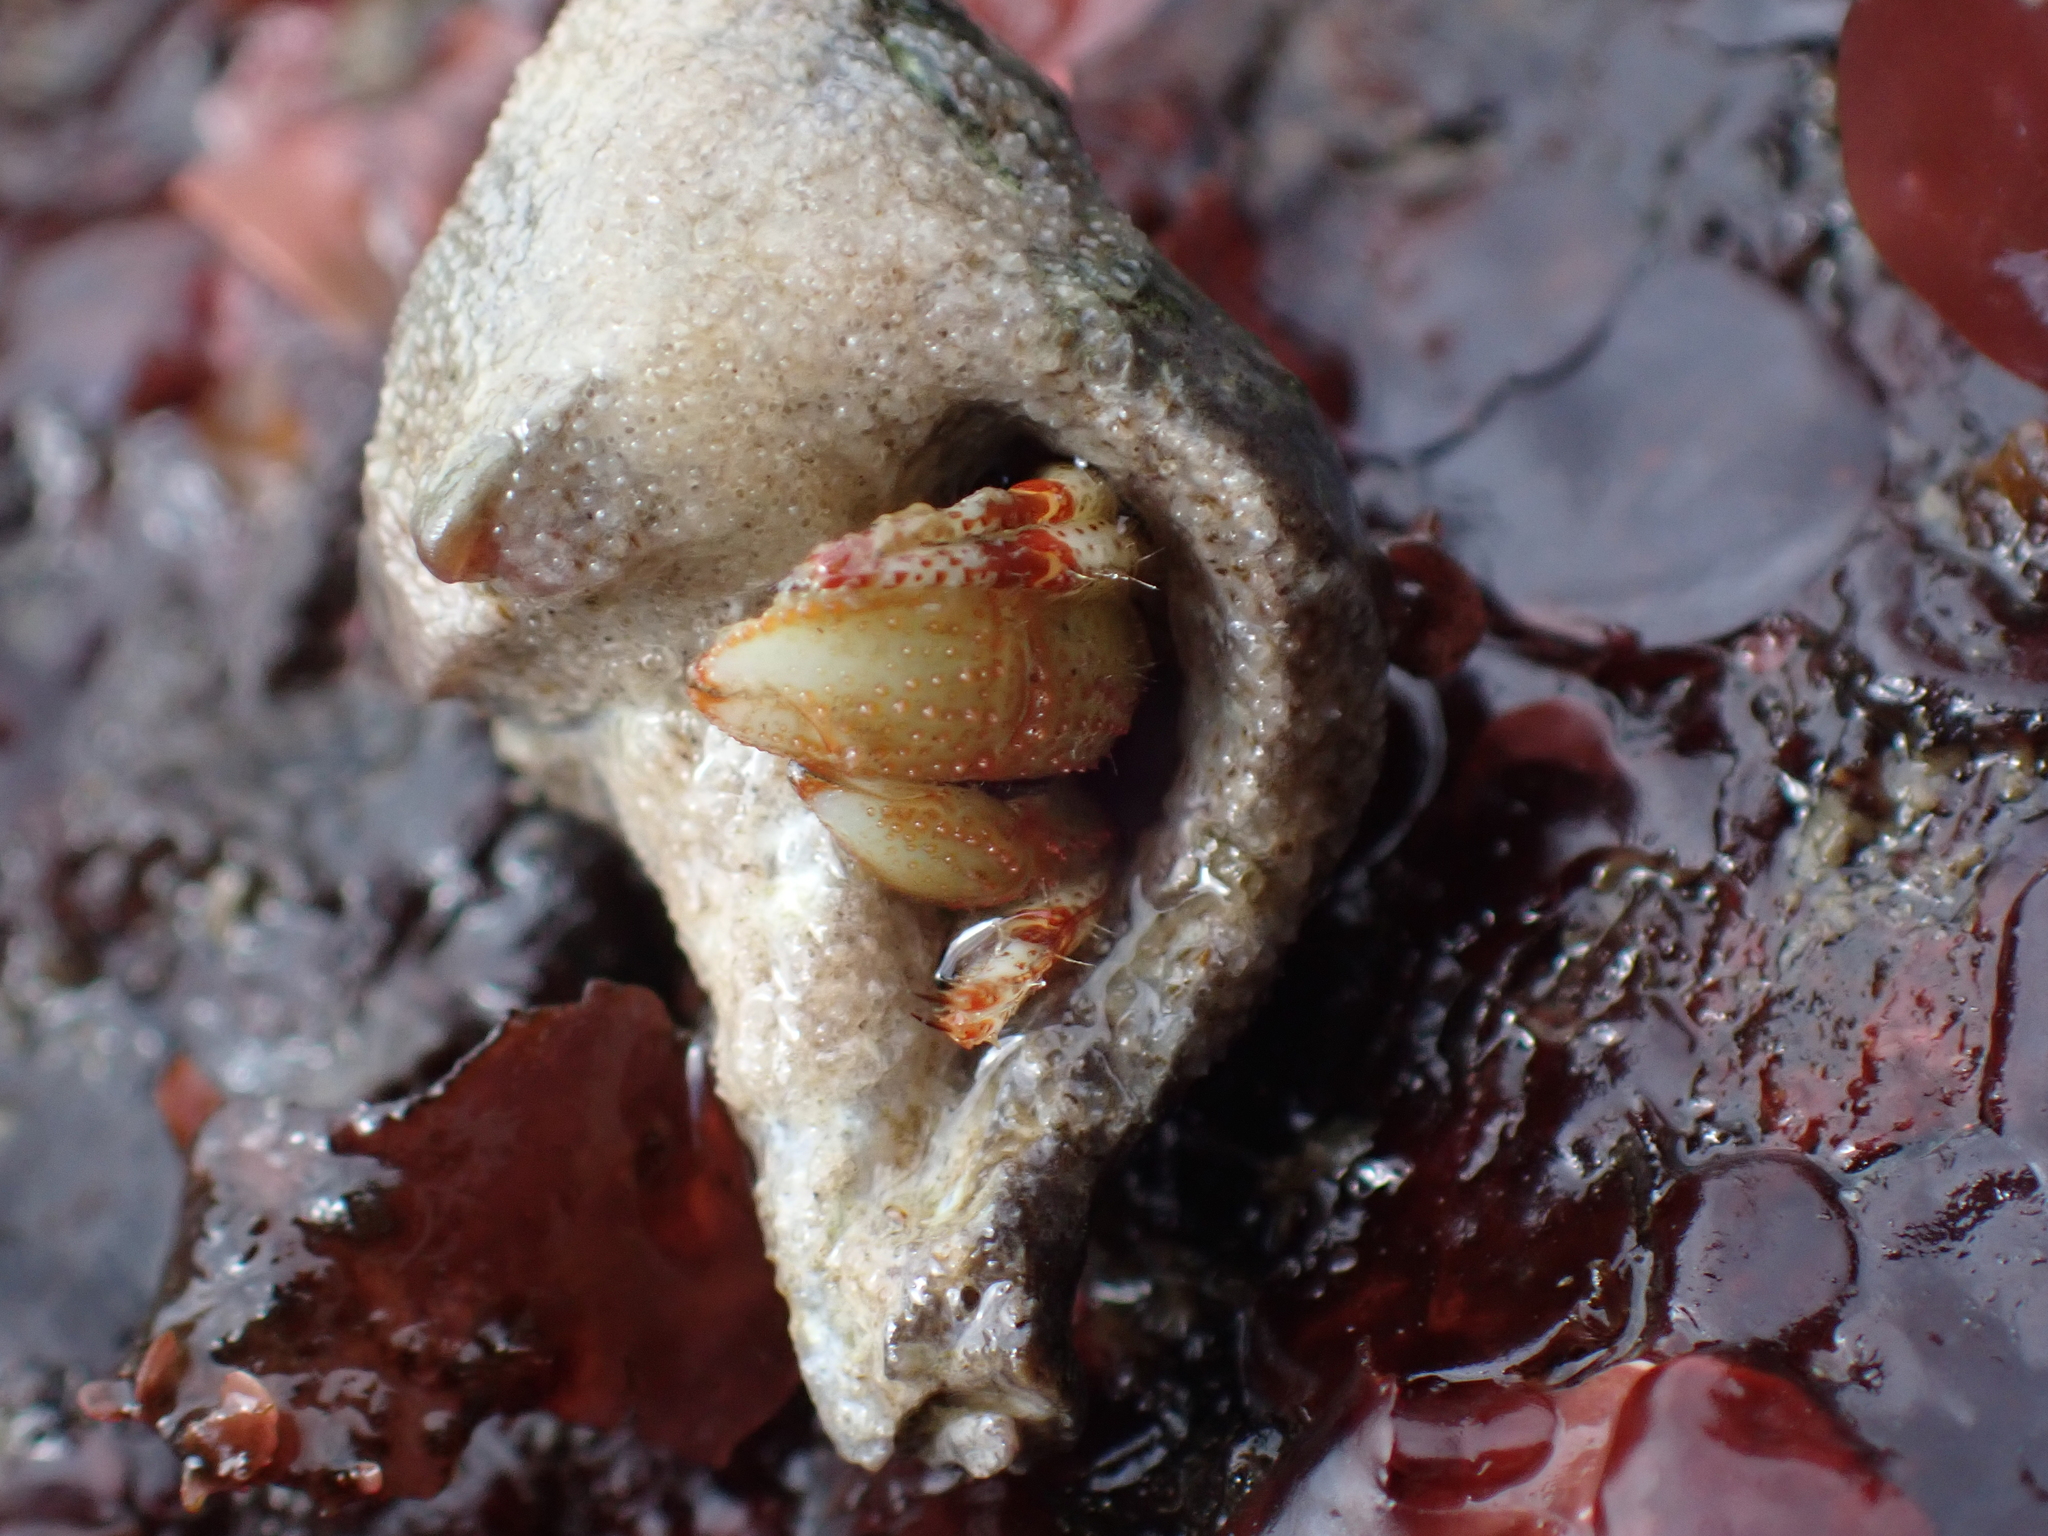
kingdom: Animalia
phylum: Arthropoda
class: Malacostraca
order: Decapoda
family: Paguridae
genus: Pagurus
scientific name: Pagurus beringanus
